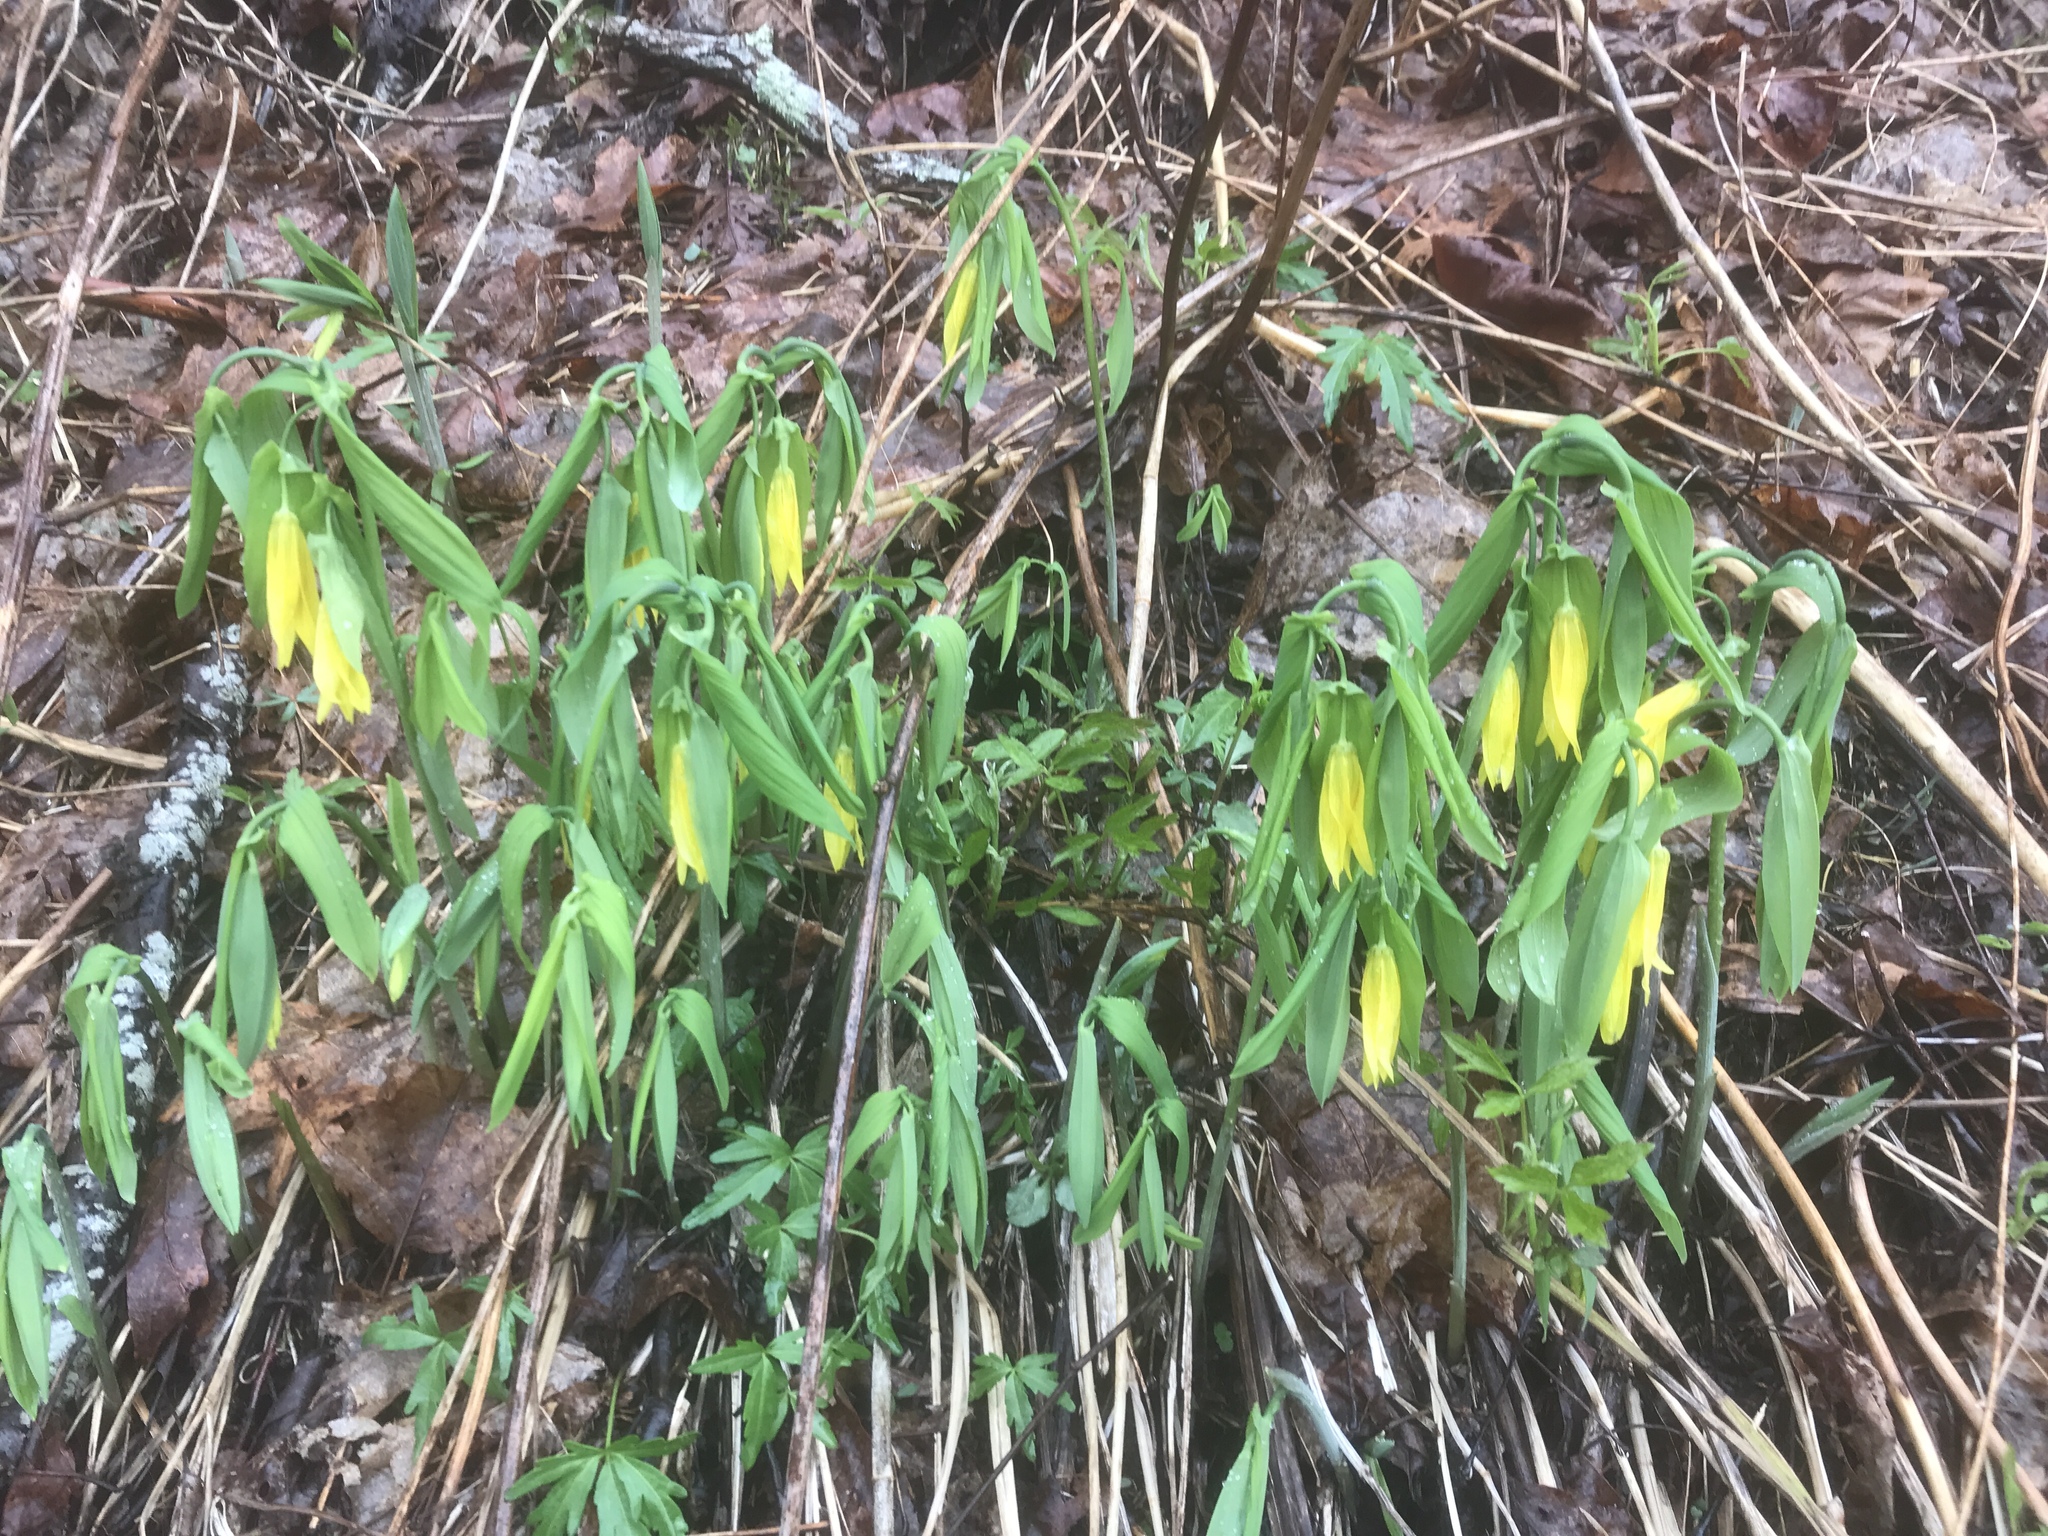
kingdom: Plantae
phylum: Tracheophyta
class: Liliopsida
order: Liliales
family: Colchicaceae
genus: Uvularia
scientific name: Uvularia grandiflora
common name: Bellwort
